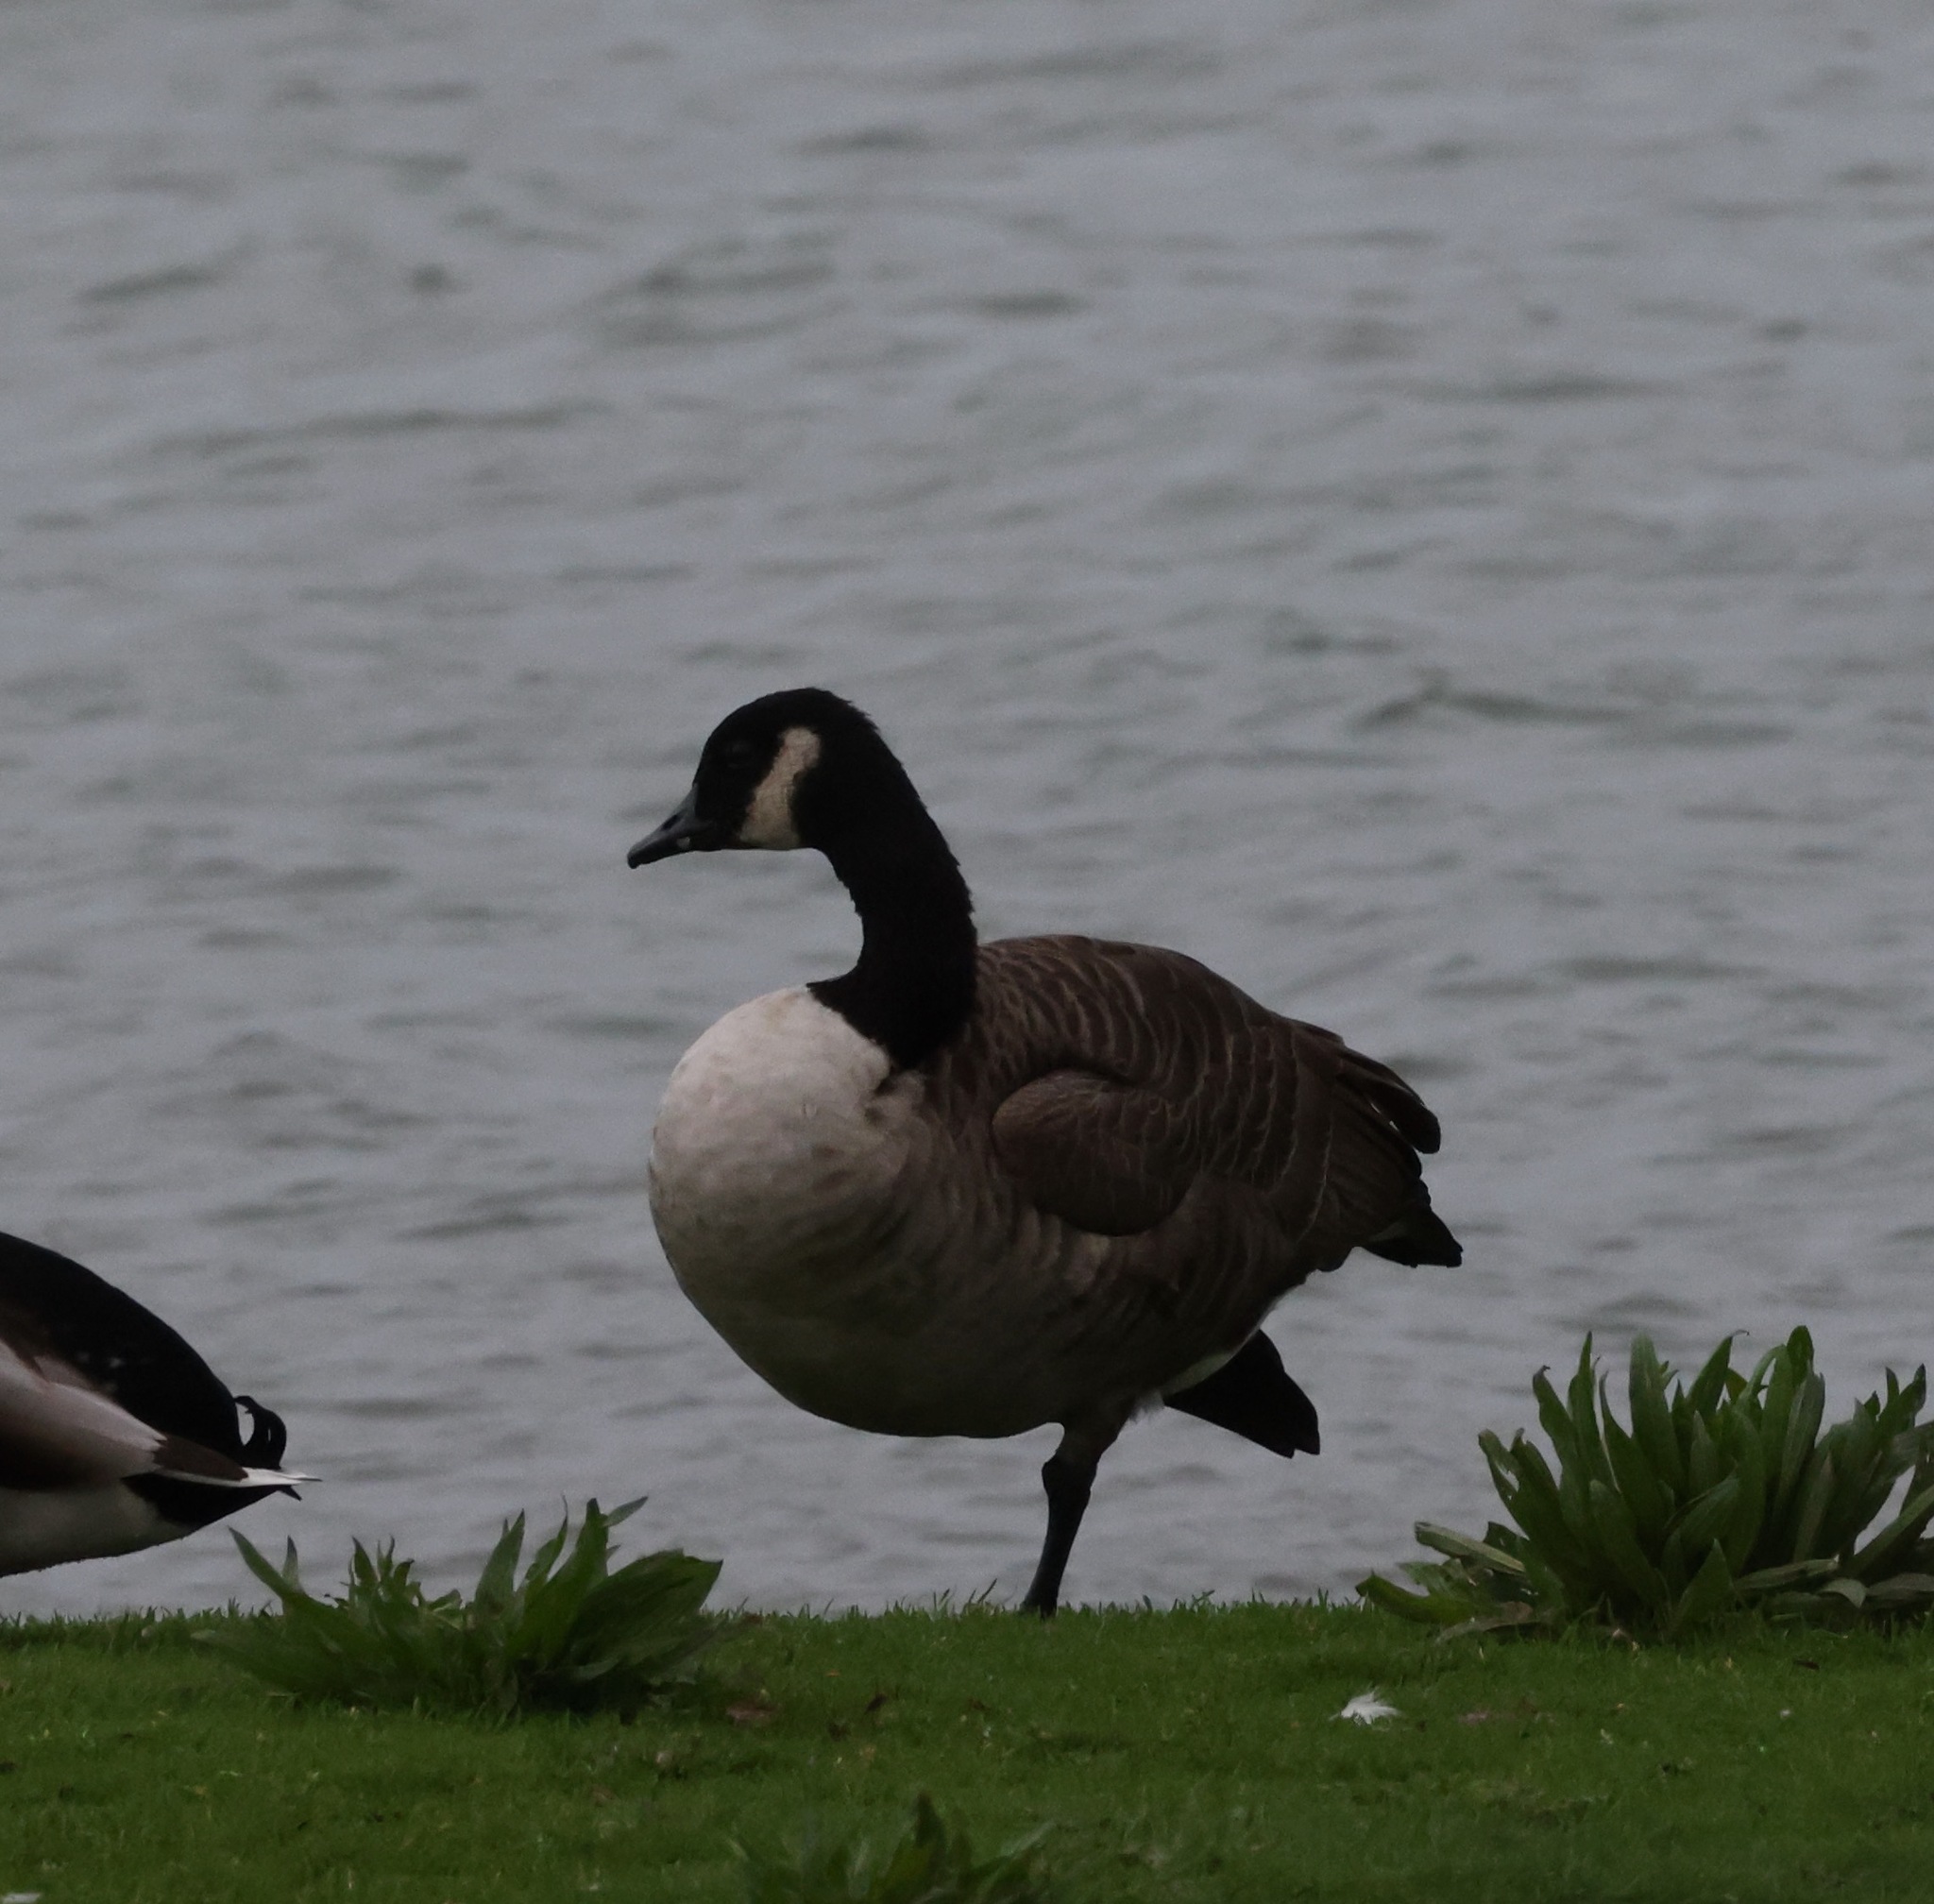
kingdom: Animalia
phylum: Chordata
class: Aves
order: Anseriformes
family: Anatidae
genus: Branta
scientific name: Branta canadensis
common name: Canada goose
